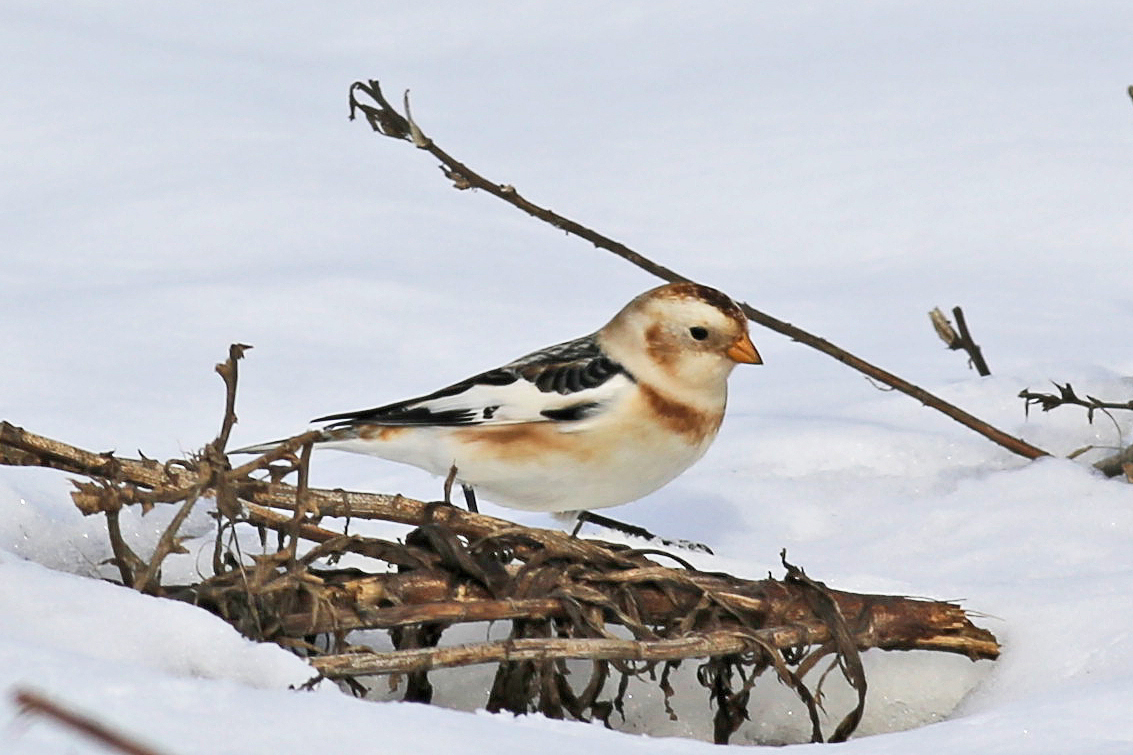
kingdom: Animalia
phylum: Chordata
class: Aves
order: Passeriformes
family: Calcariidae
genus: Plectrophenax
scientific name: Plectrophenax nivalis
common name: Snow bunting
